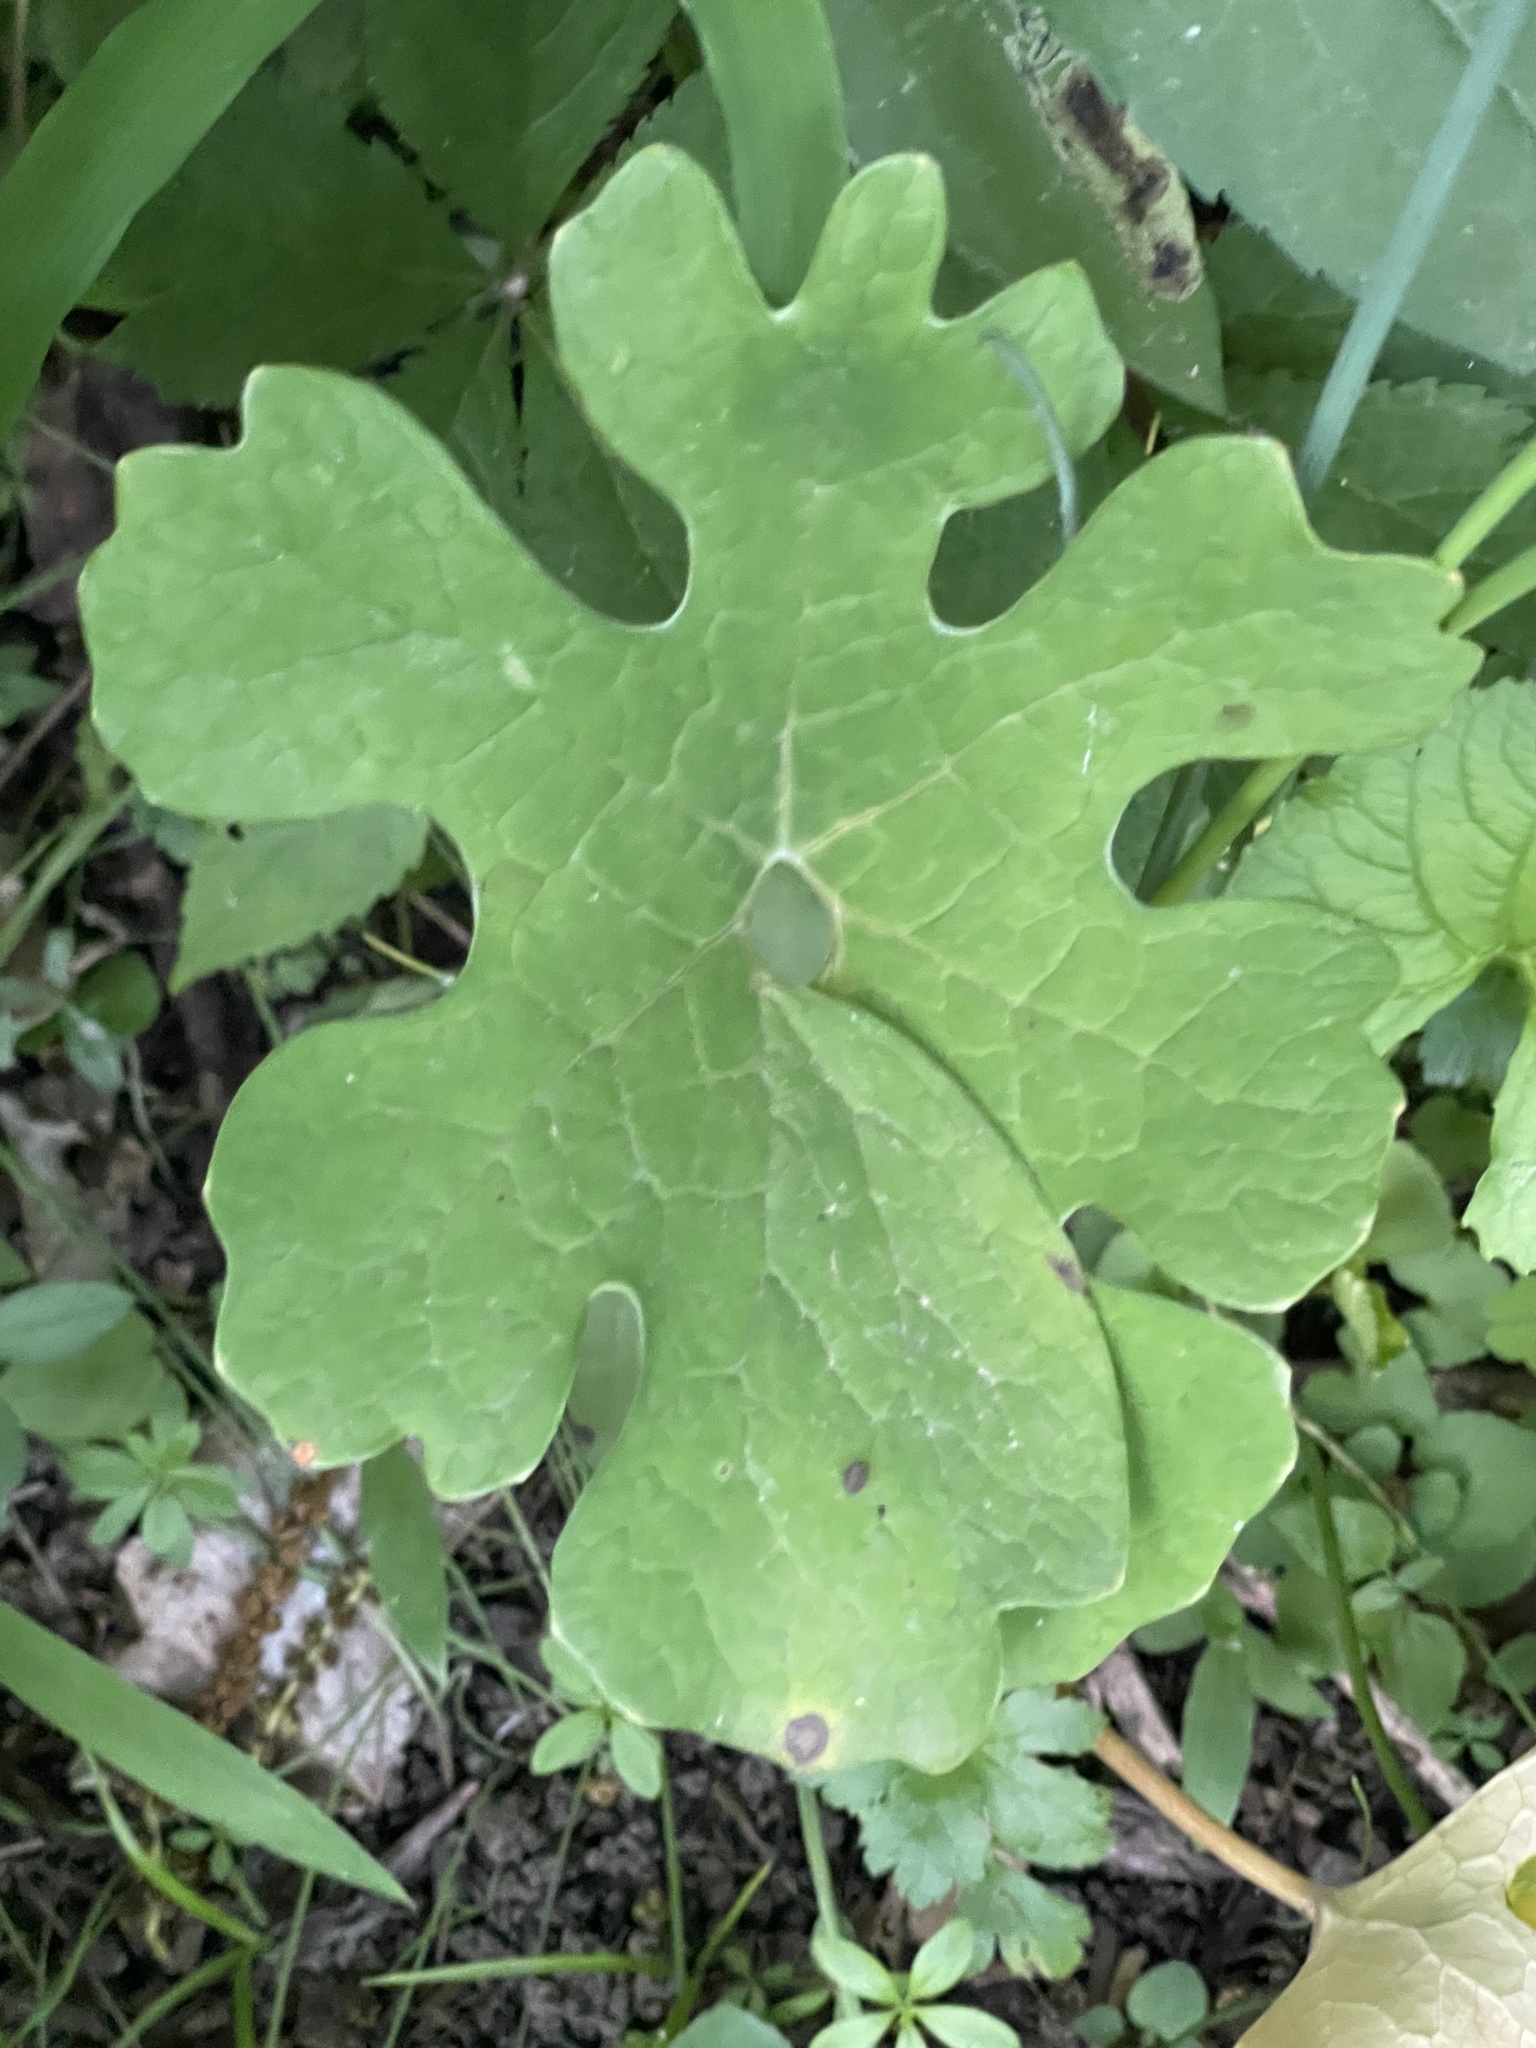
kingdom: Plantae
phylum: Tracheophyta
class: Magnoliopsida
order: Ranunculales
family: Papaveraceae
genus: Sanguinaria
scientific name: Sanguinaria canadensis
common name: Bloodroot
